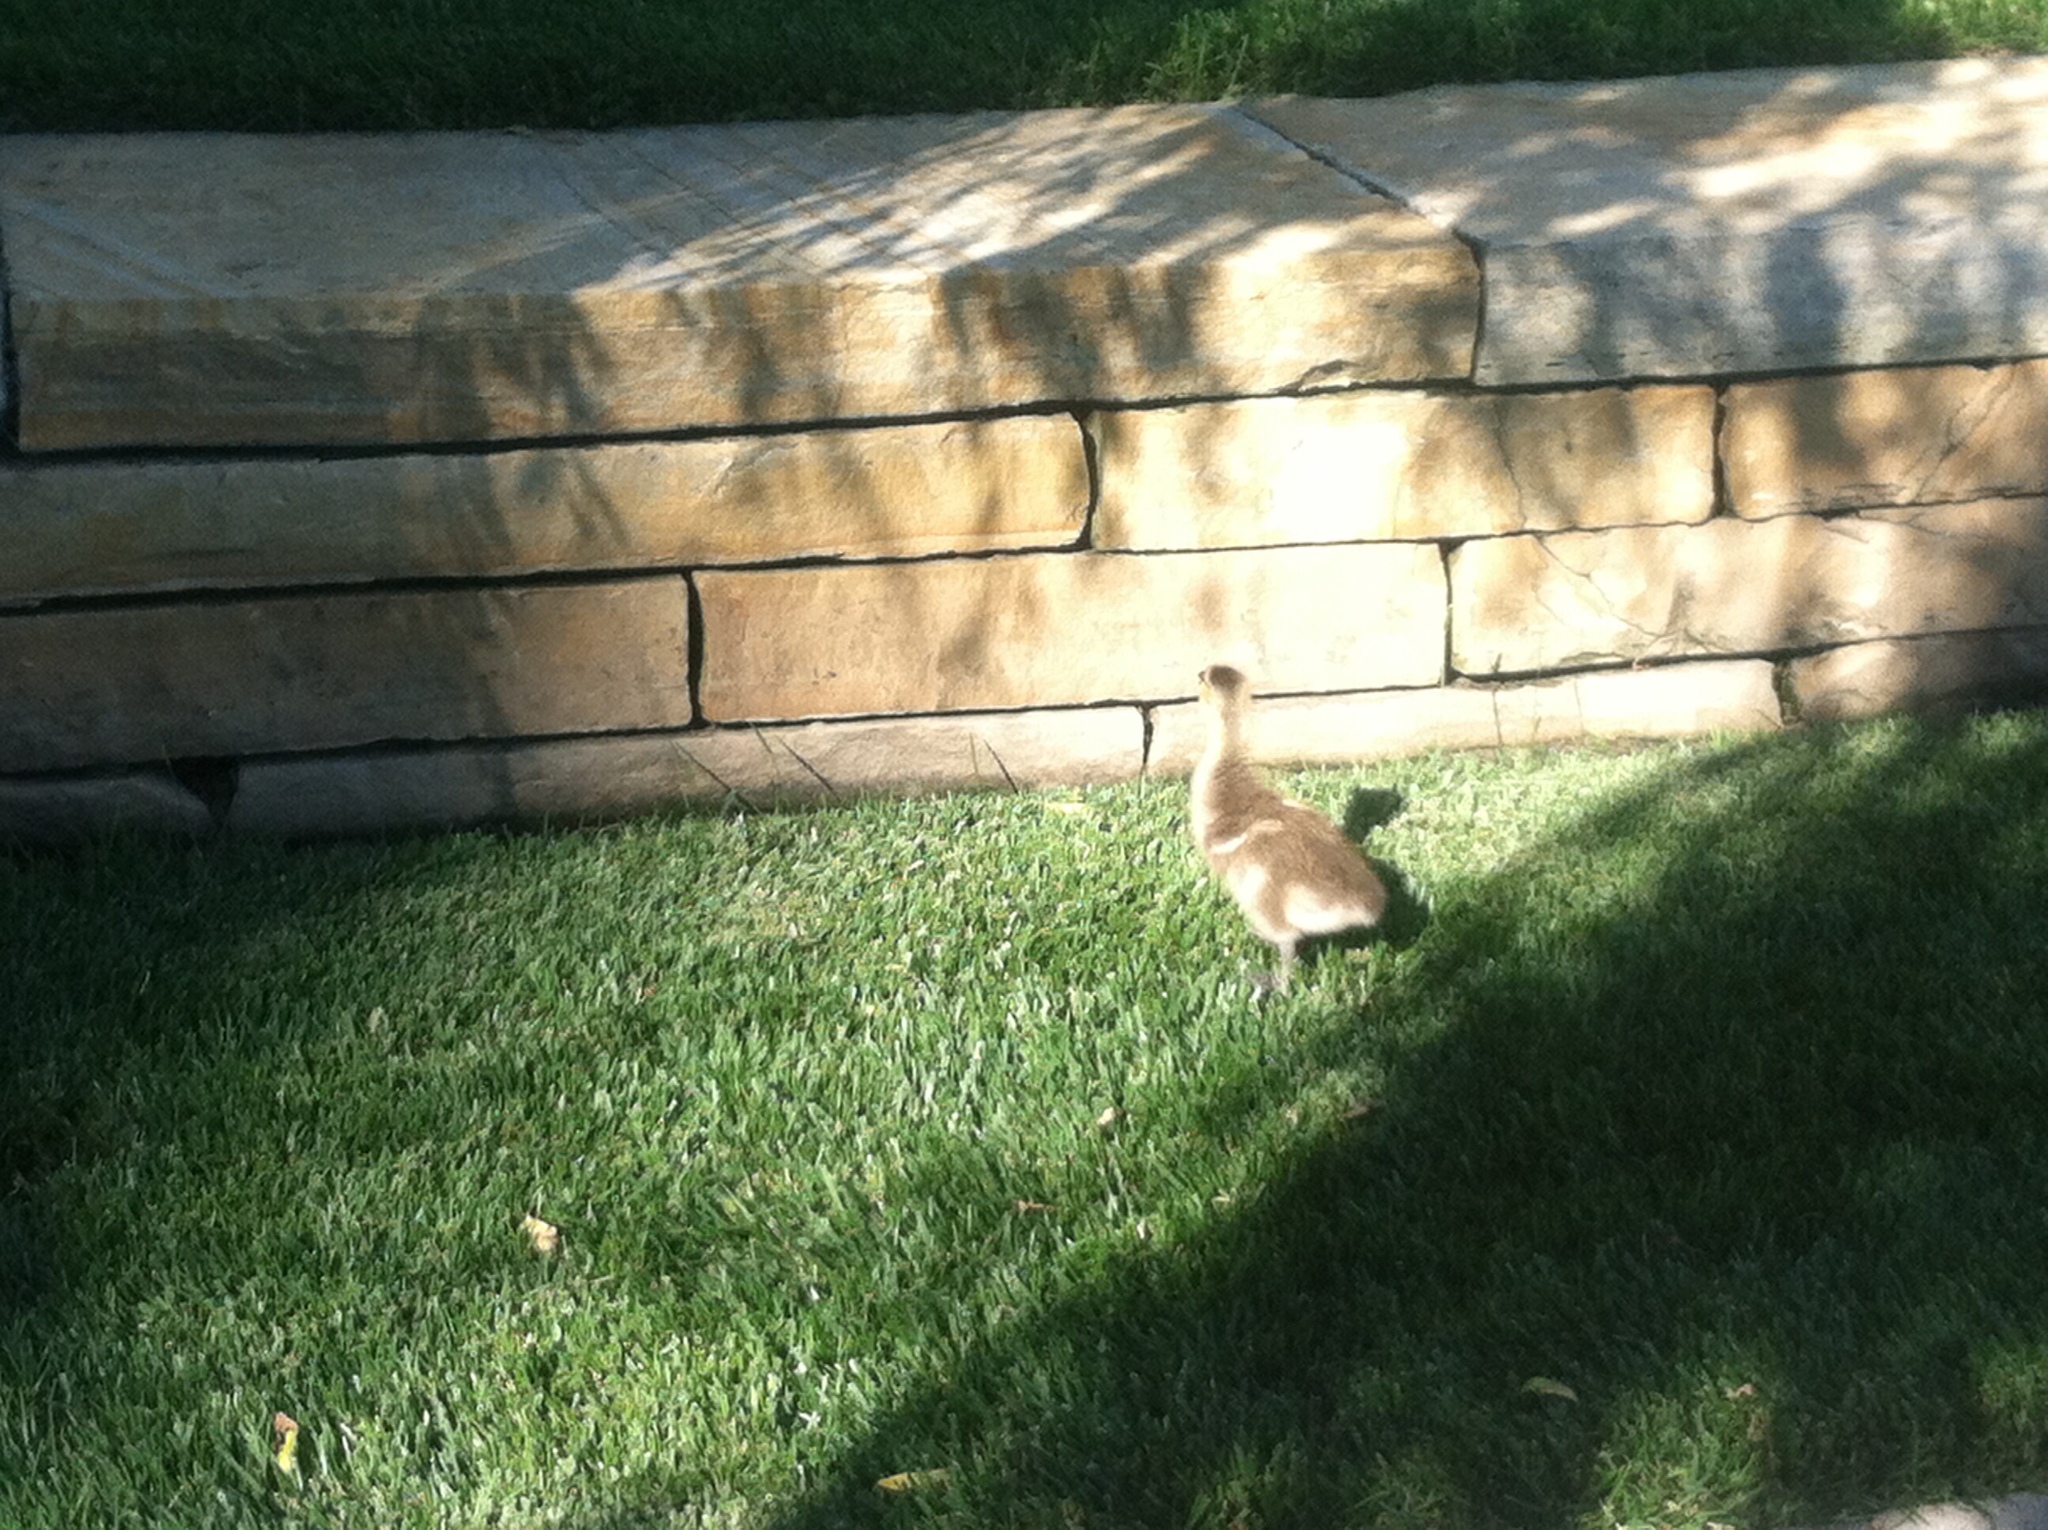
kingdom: Animalia
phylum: Chordata
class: Aves
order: Anseriformes
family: Anatidae
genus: Branta
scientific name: Branta canadensis
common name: Canada goose
